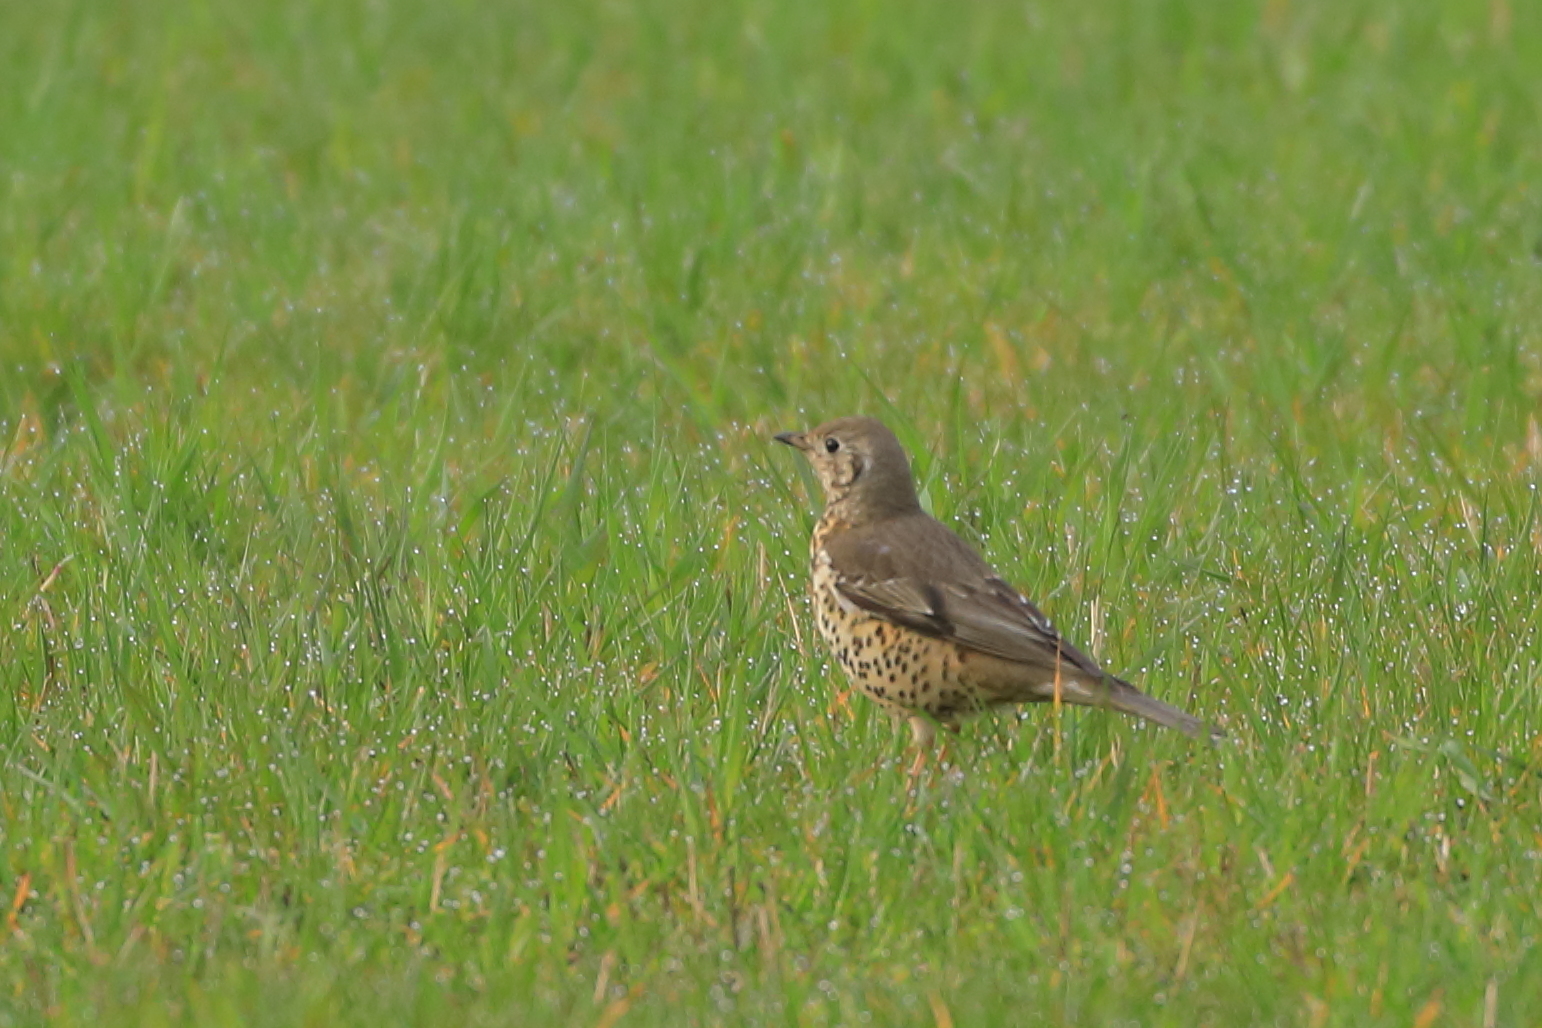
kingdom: Animalia
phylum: Chordata
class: Aves
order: Passeriformes
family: Turdidae
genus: Turdus
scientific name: Turdus viscivorus
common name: Mistle thrush
